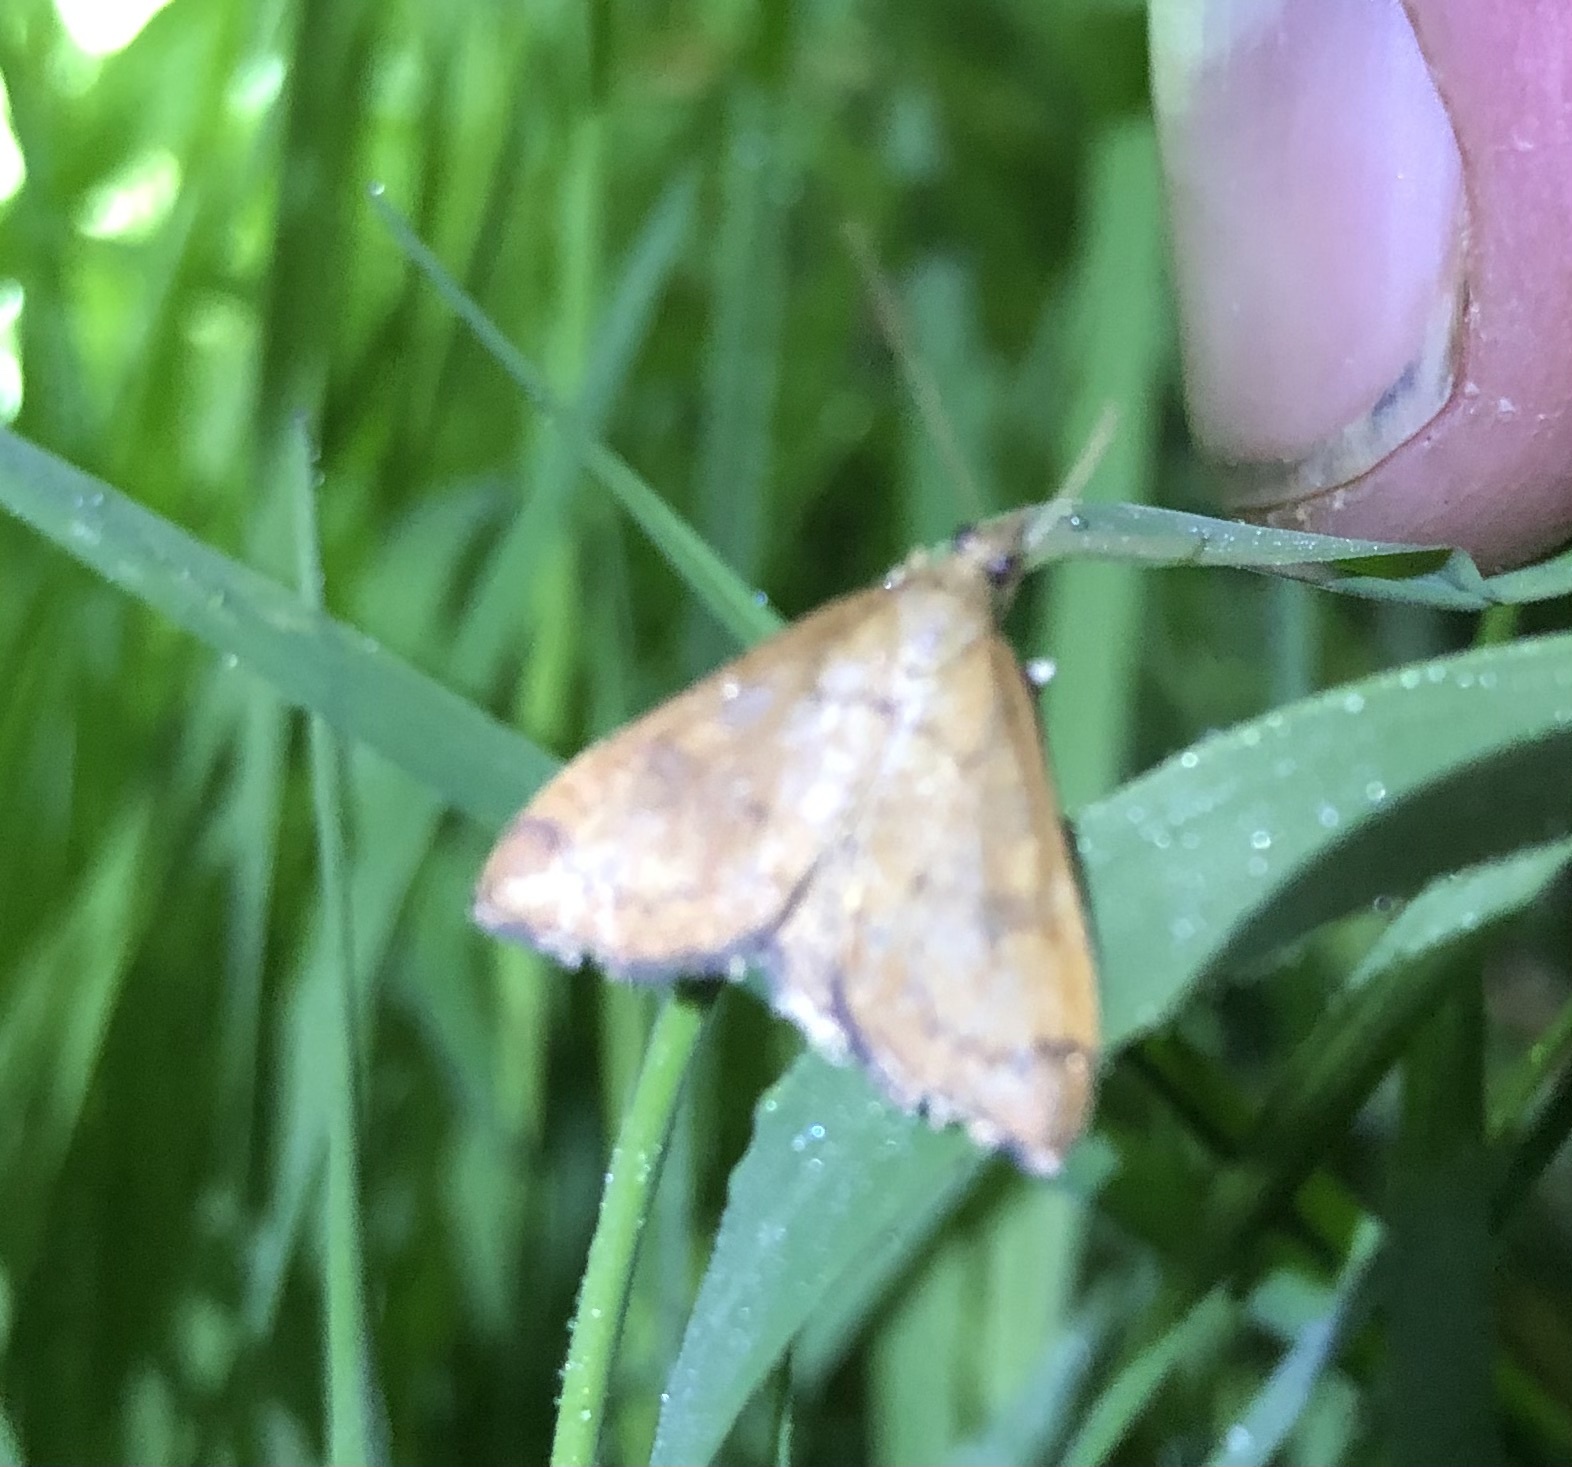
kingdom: Animalia
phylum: Arthropoda
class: Insecta
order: Lepidoptera
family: Crambidae
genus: Udea
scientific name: Udea Mnesictena flavidalis
